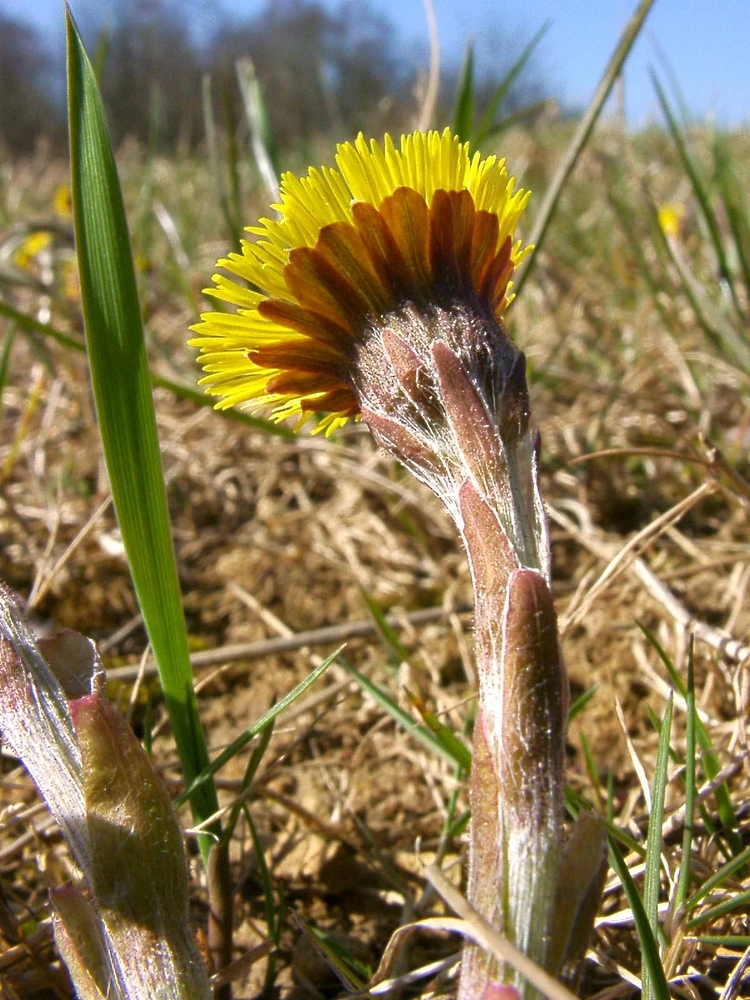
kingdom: Plantae
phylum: Tracheophyta
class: Magnoliopsida
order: Asterales
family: Asteraceae
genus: Tussilago
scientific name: Tussilago farfara
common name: Coltsfoot
